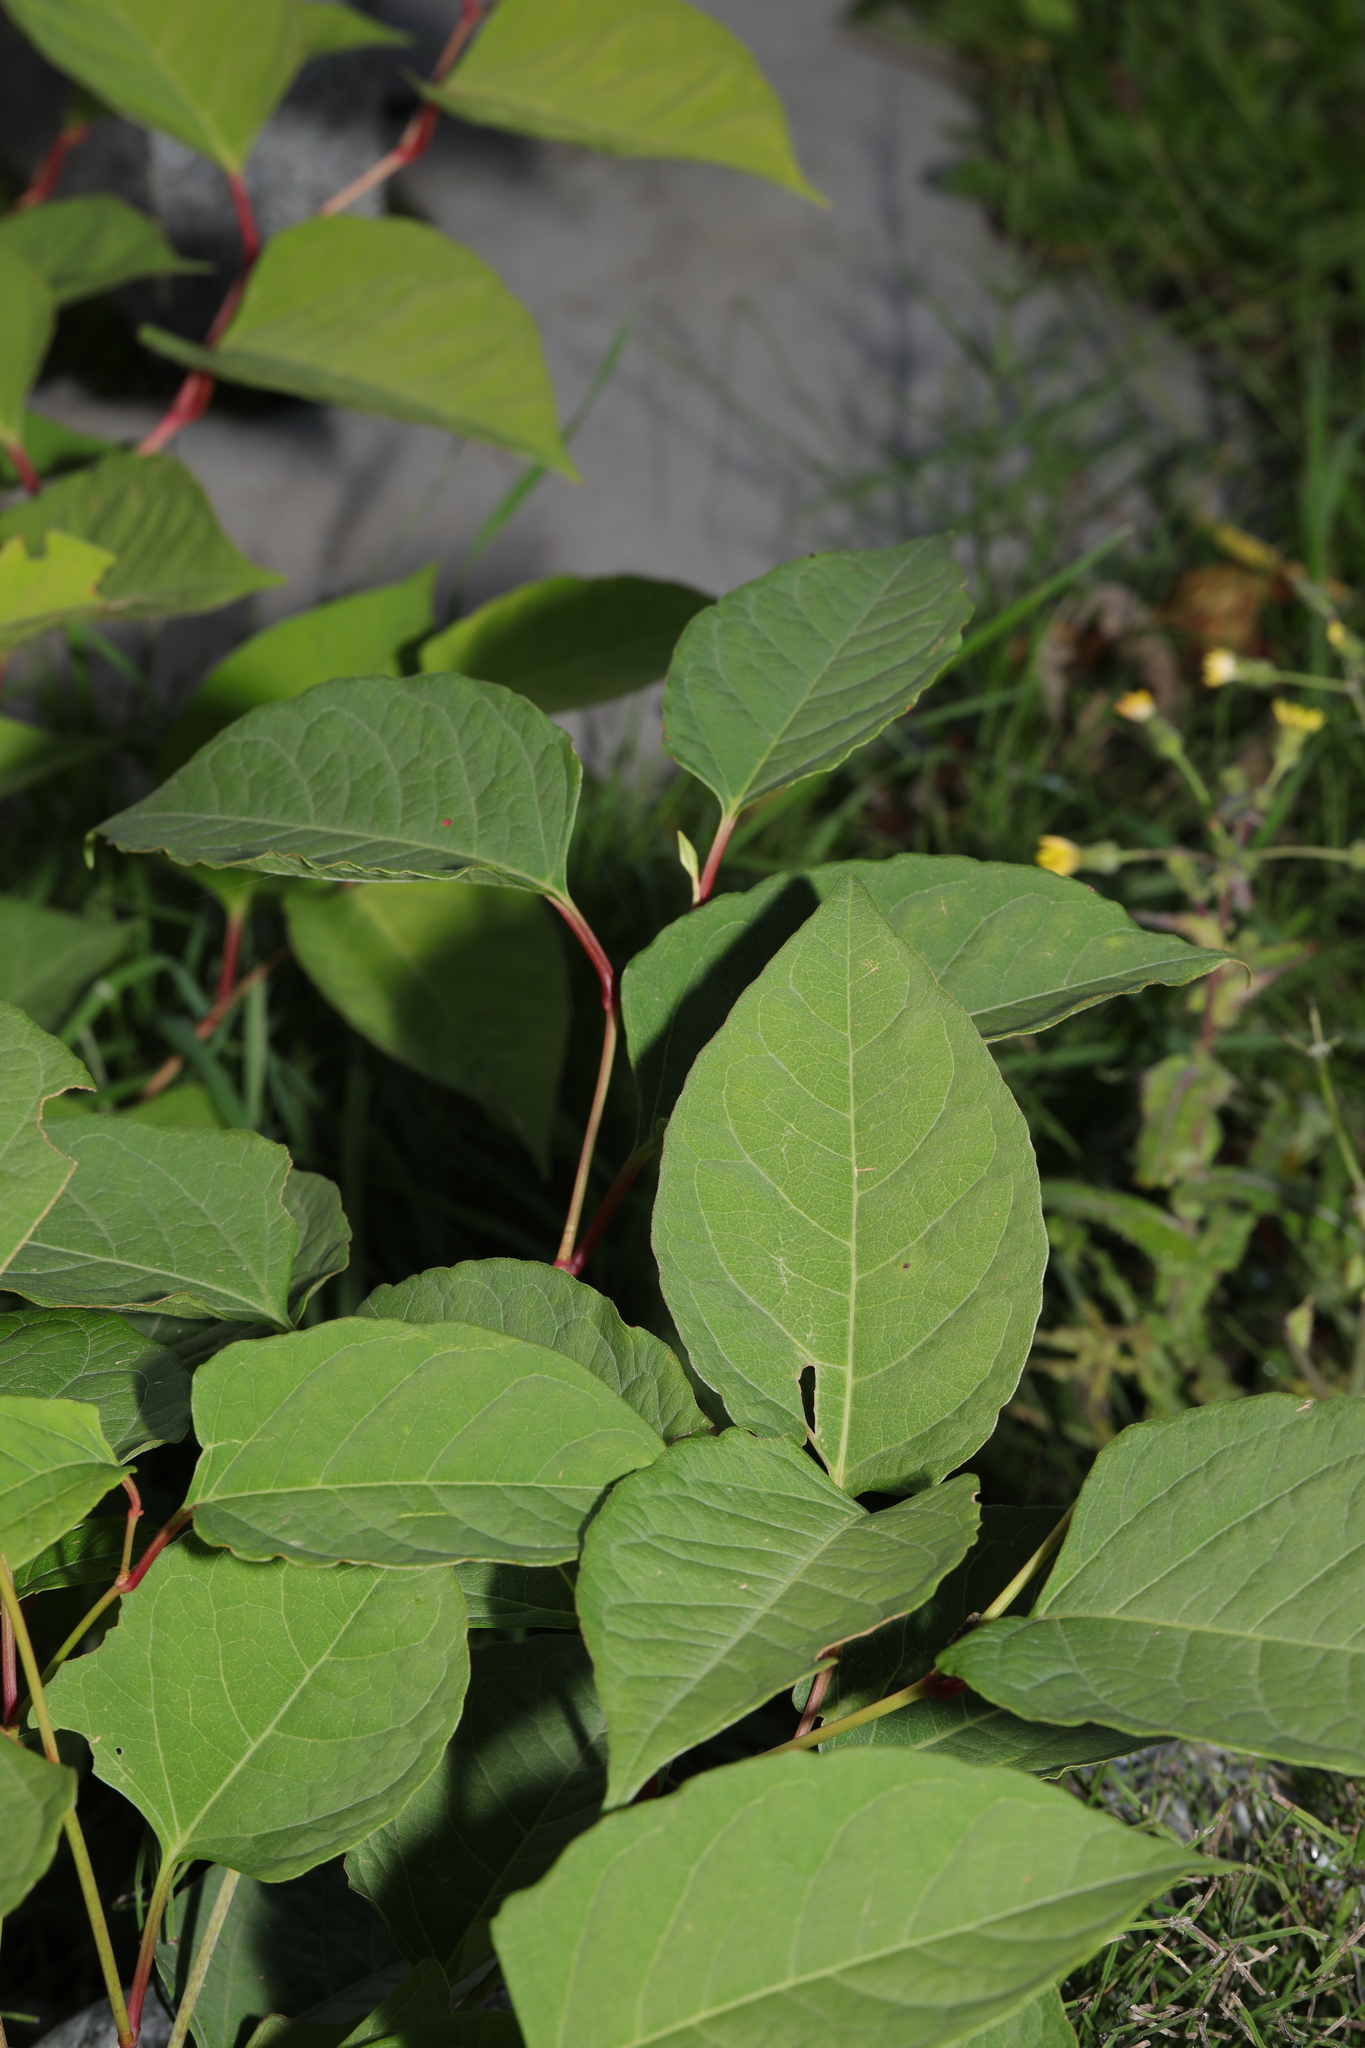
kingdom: Plantae
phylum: Tracheophyta
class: Magnoliopsida
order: Caryophyllales
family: Polygonaceae
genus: Reynoutria
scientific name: Reynoutria japonica
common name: Japanese knotweed
